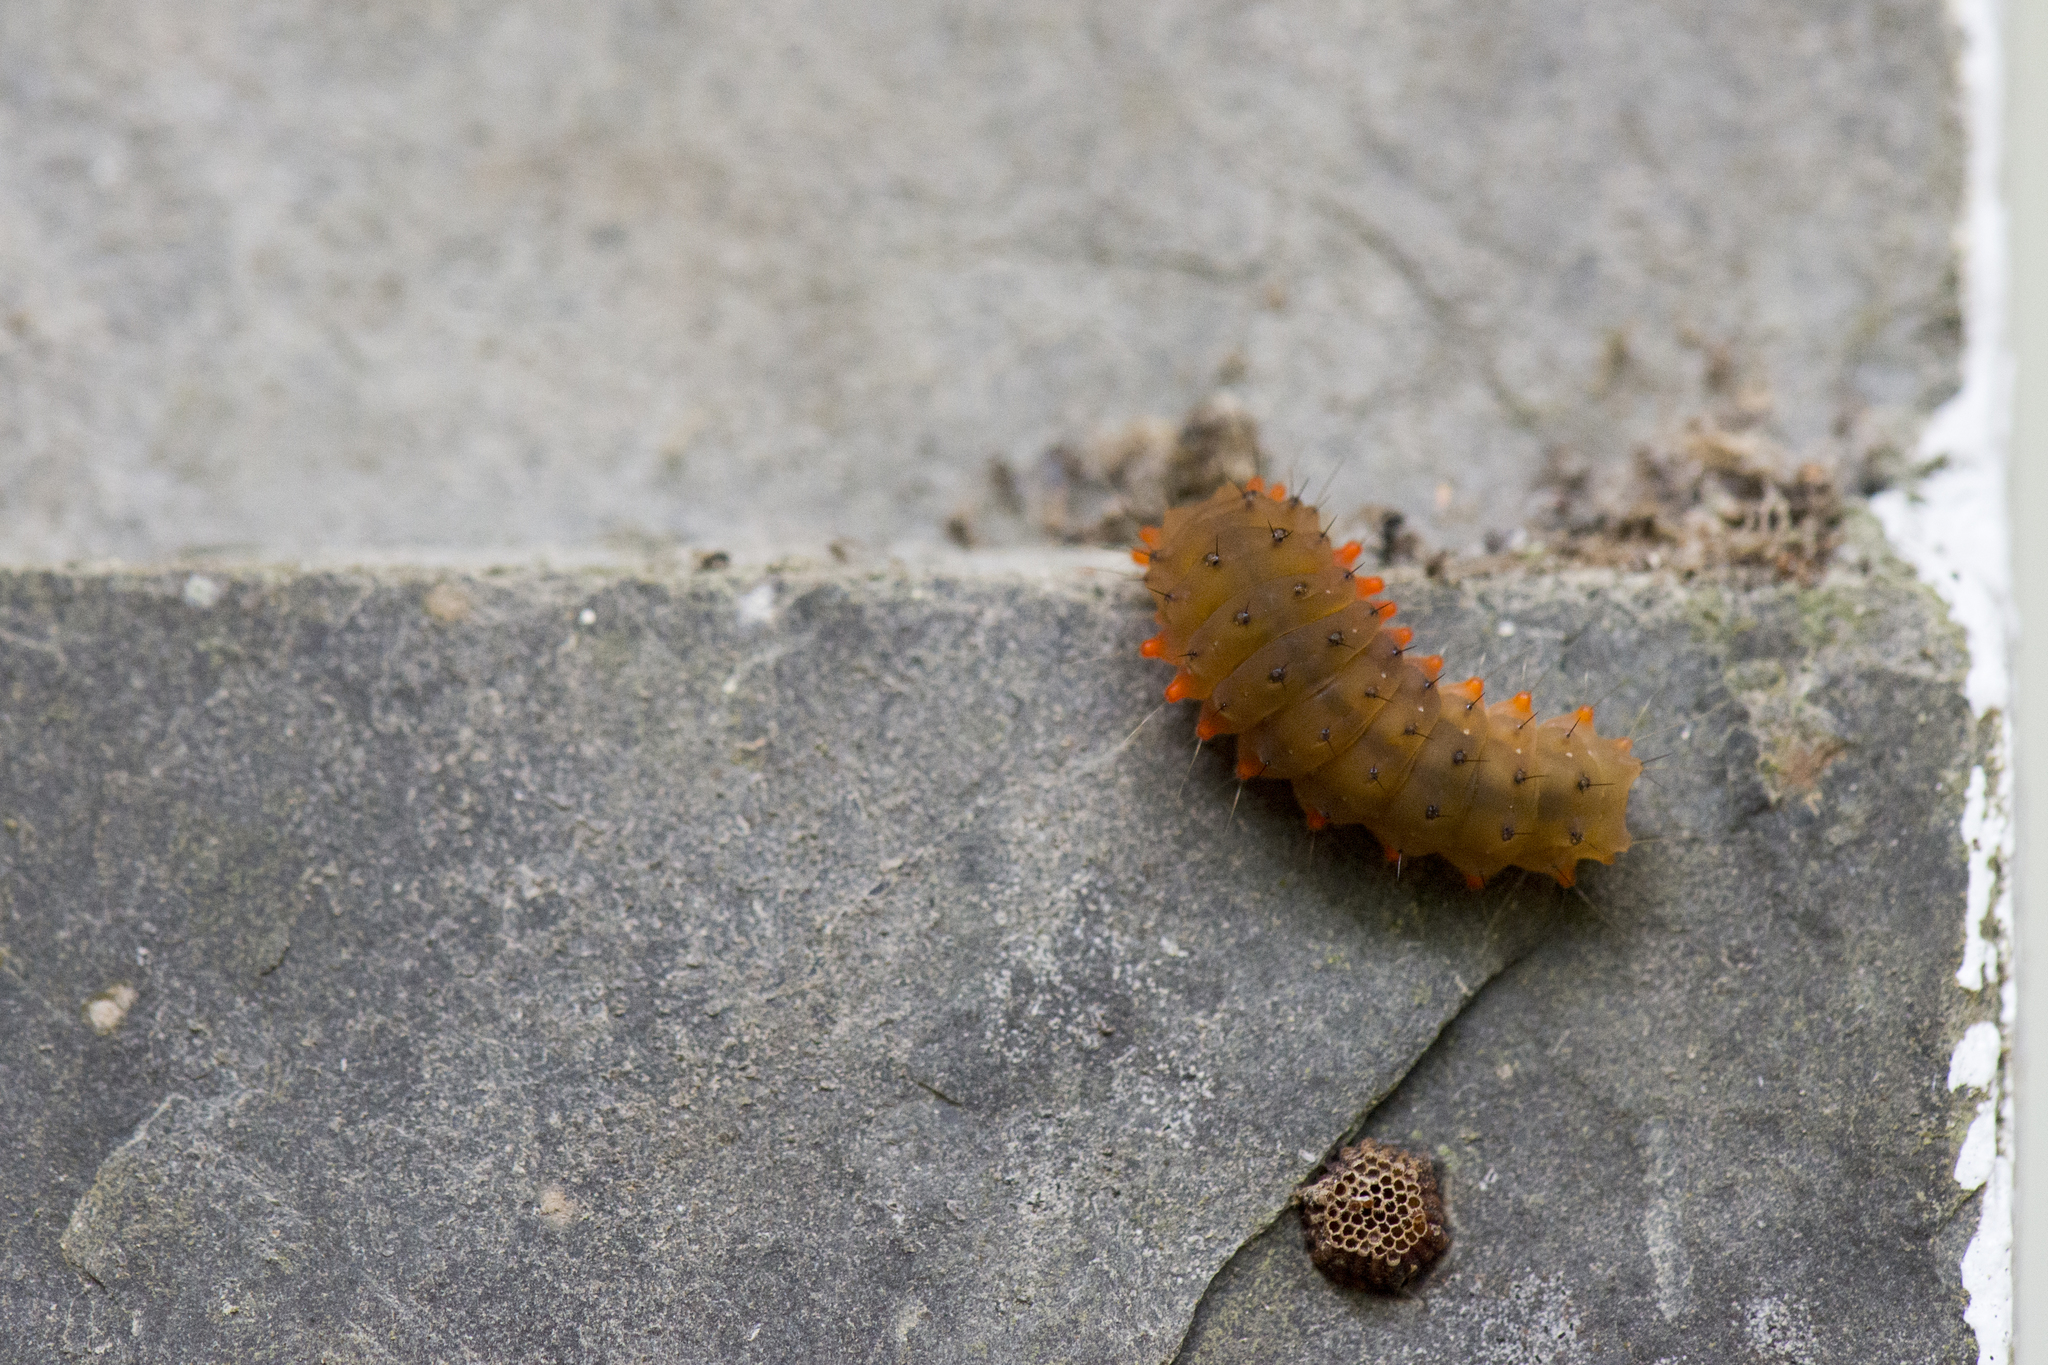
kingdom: Animalia
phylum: Arthropoda
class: Insecta
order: Lepidoptera
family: Zygaenidae
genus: Eterusia
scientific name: Eterusia aedea
